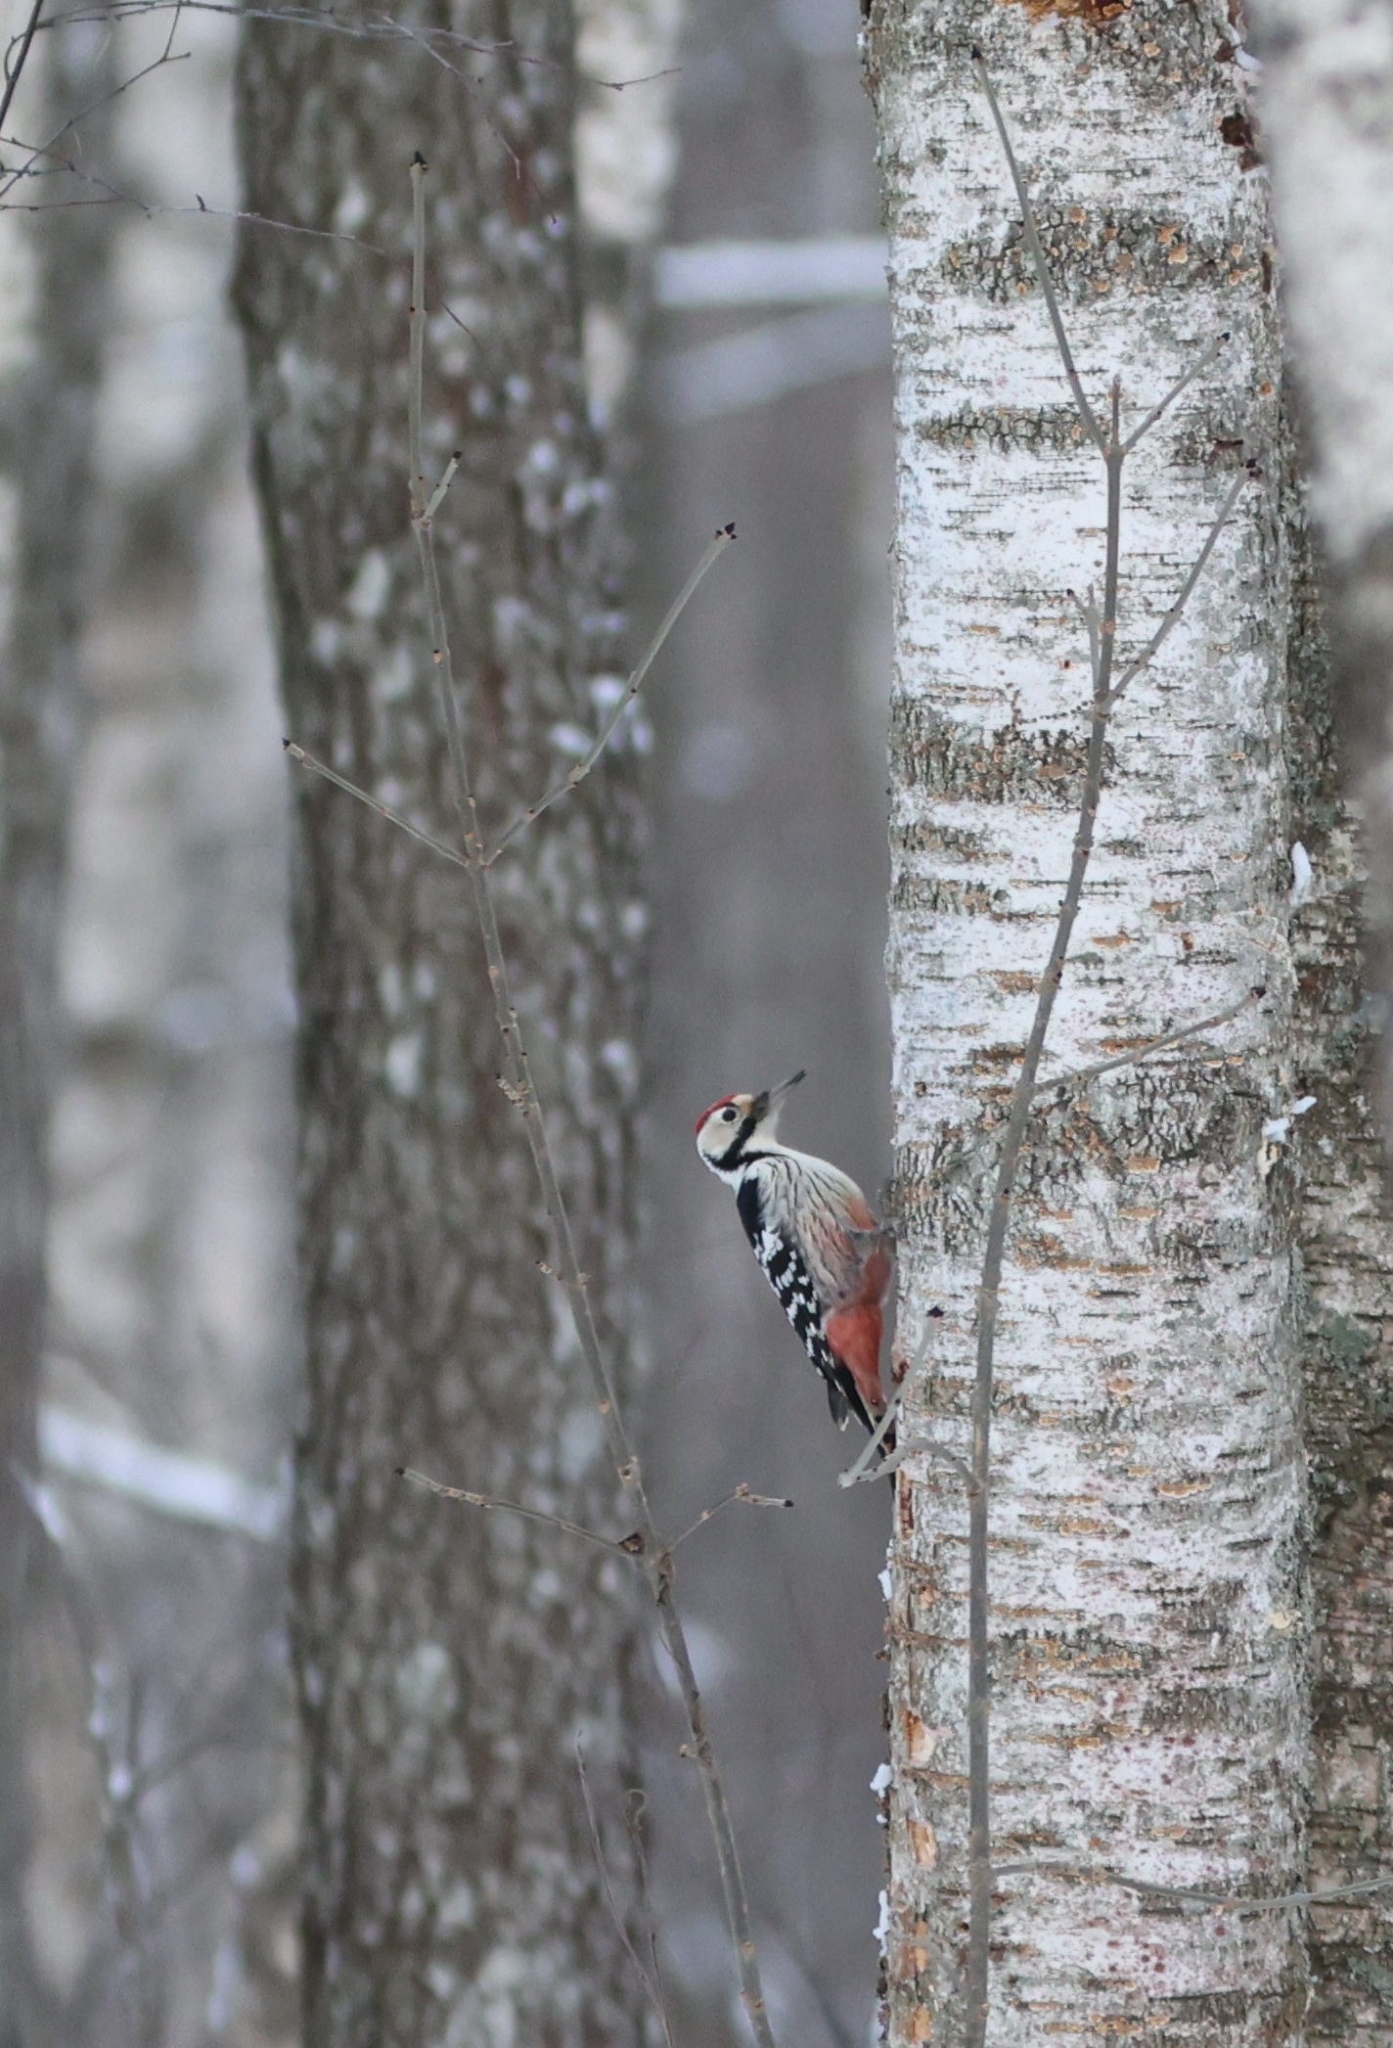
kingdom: Animalia
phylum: Chordata
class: Aves
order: Piciformes
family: Picidae
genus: Dendrocopos
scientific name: Dendrocopos leucotos
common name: White-backed woodpecker
